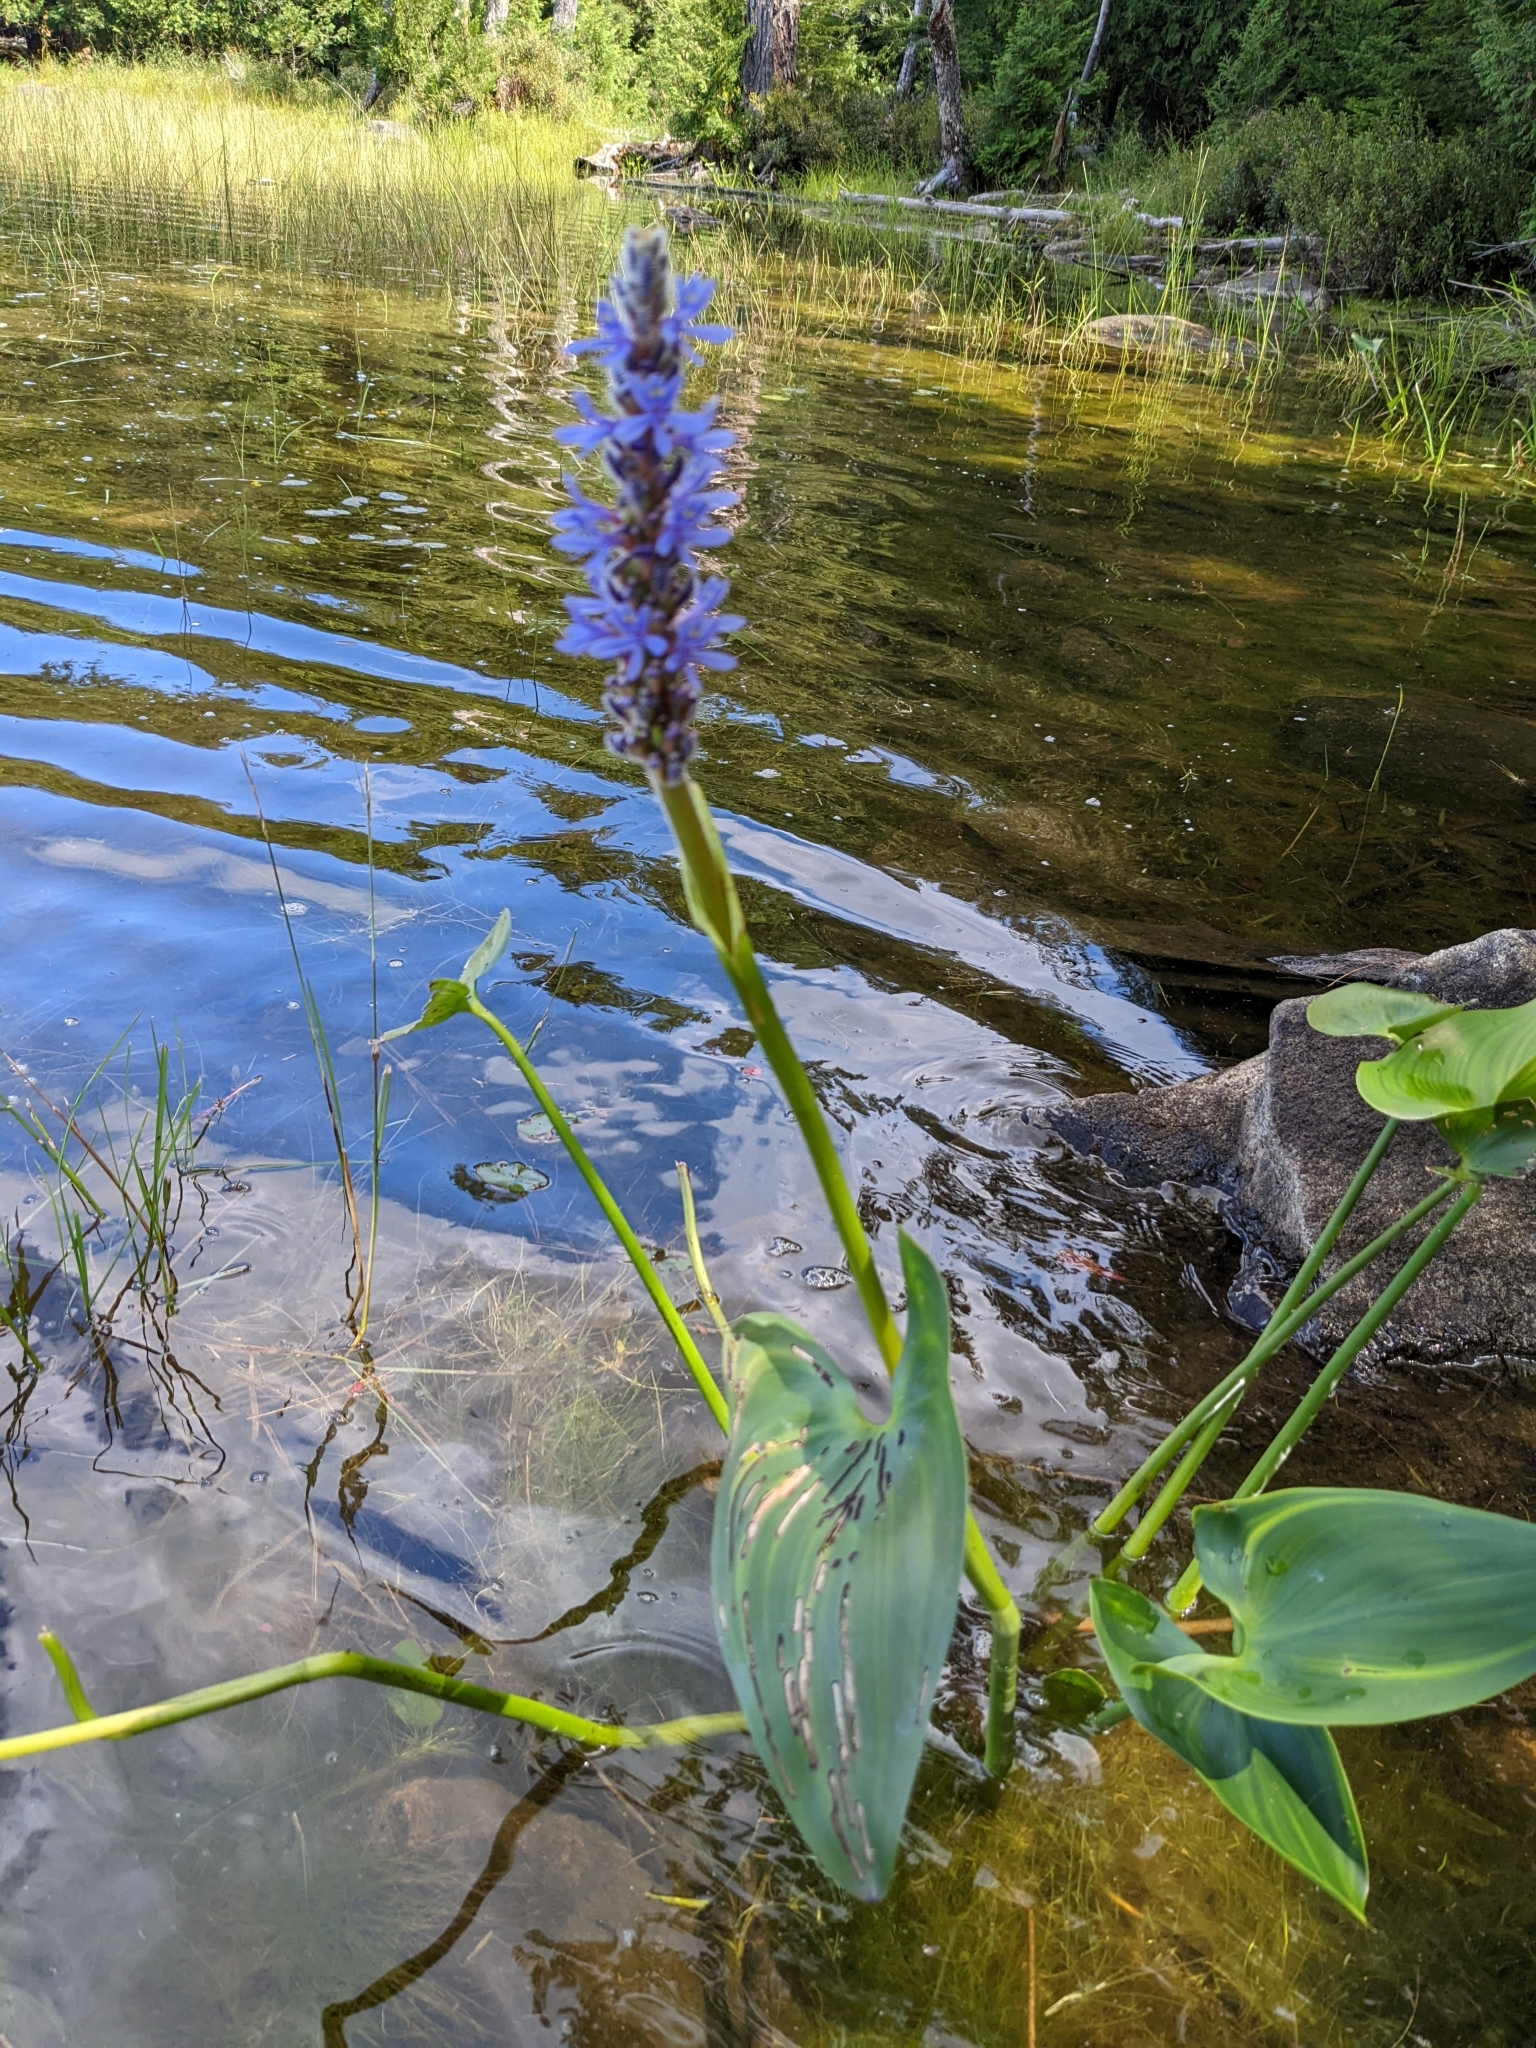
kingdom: Plantae
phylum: Tracheophyta
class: Liliopsida
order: Commelinales
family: Pontederiaceae
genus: Pontederia
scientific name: Pontederia cordata
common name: Pickerelweed
